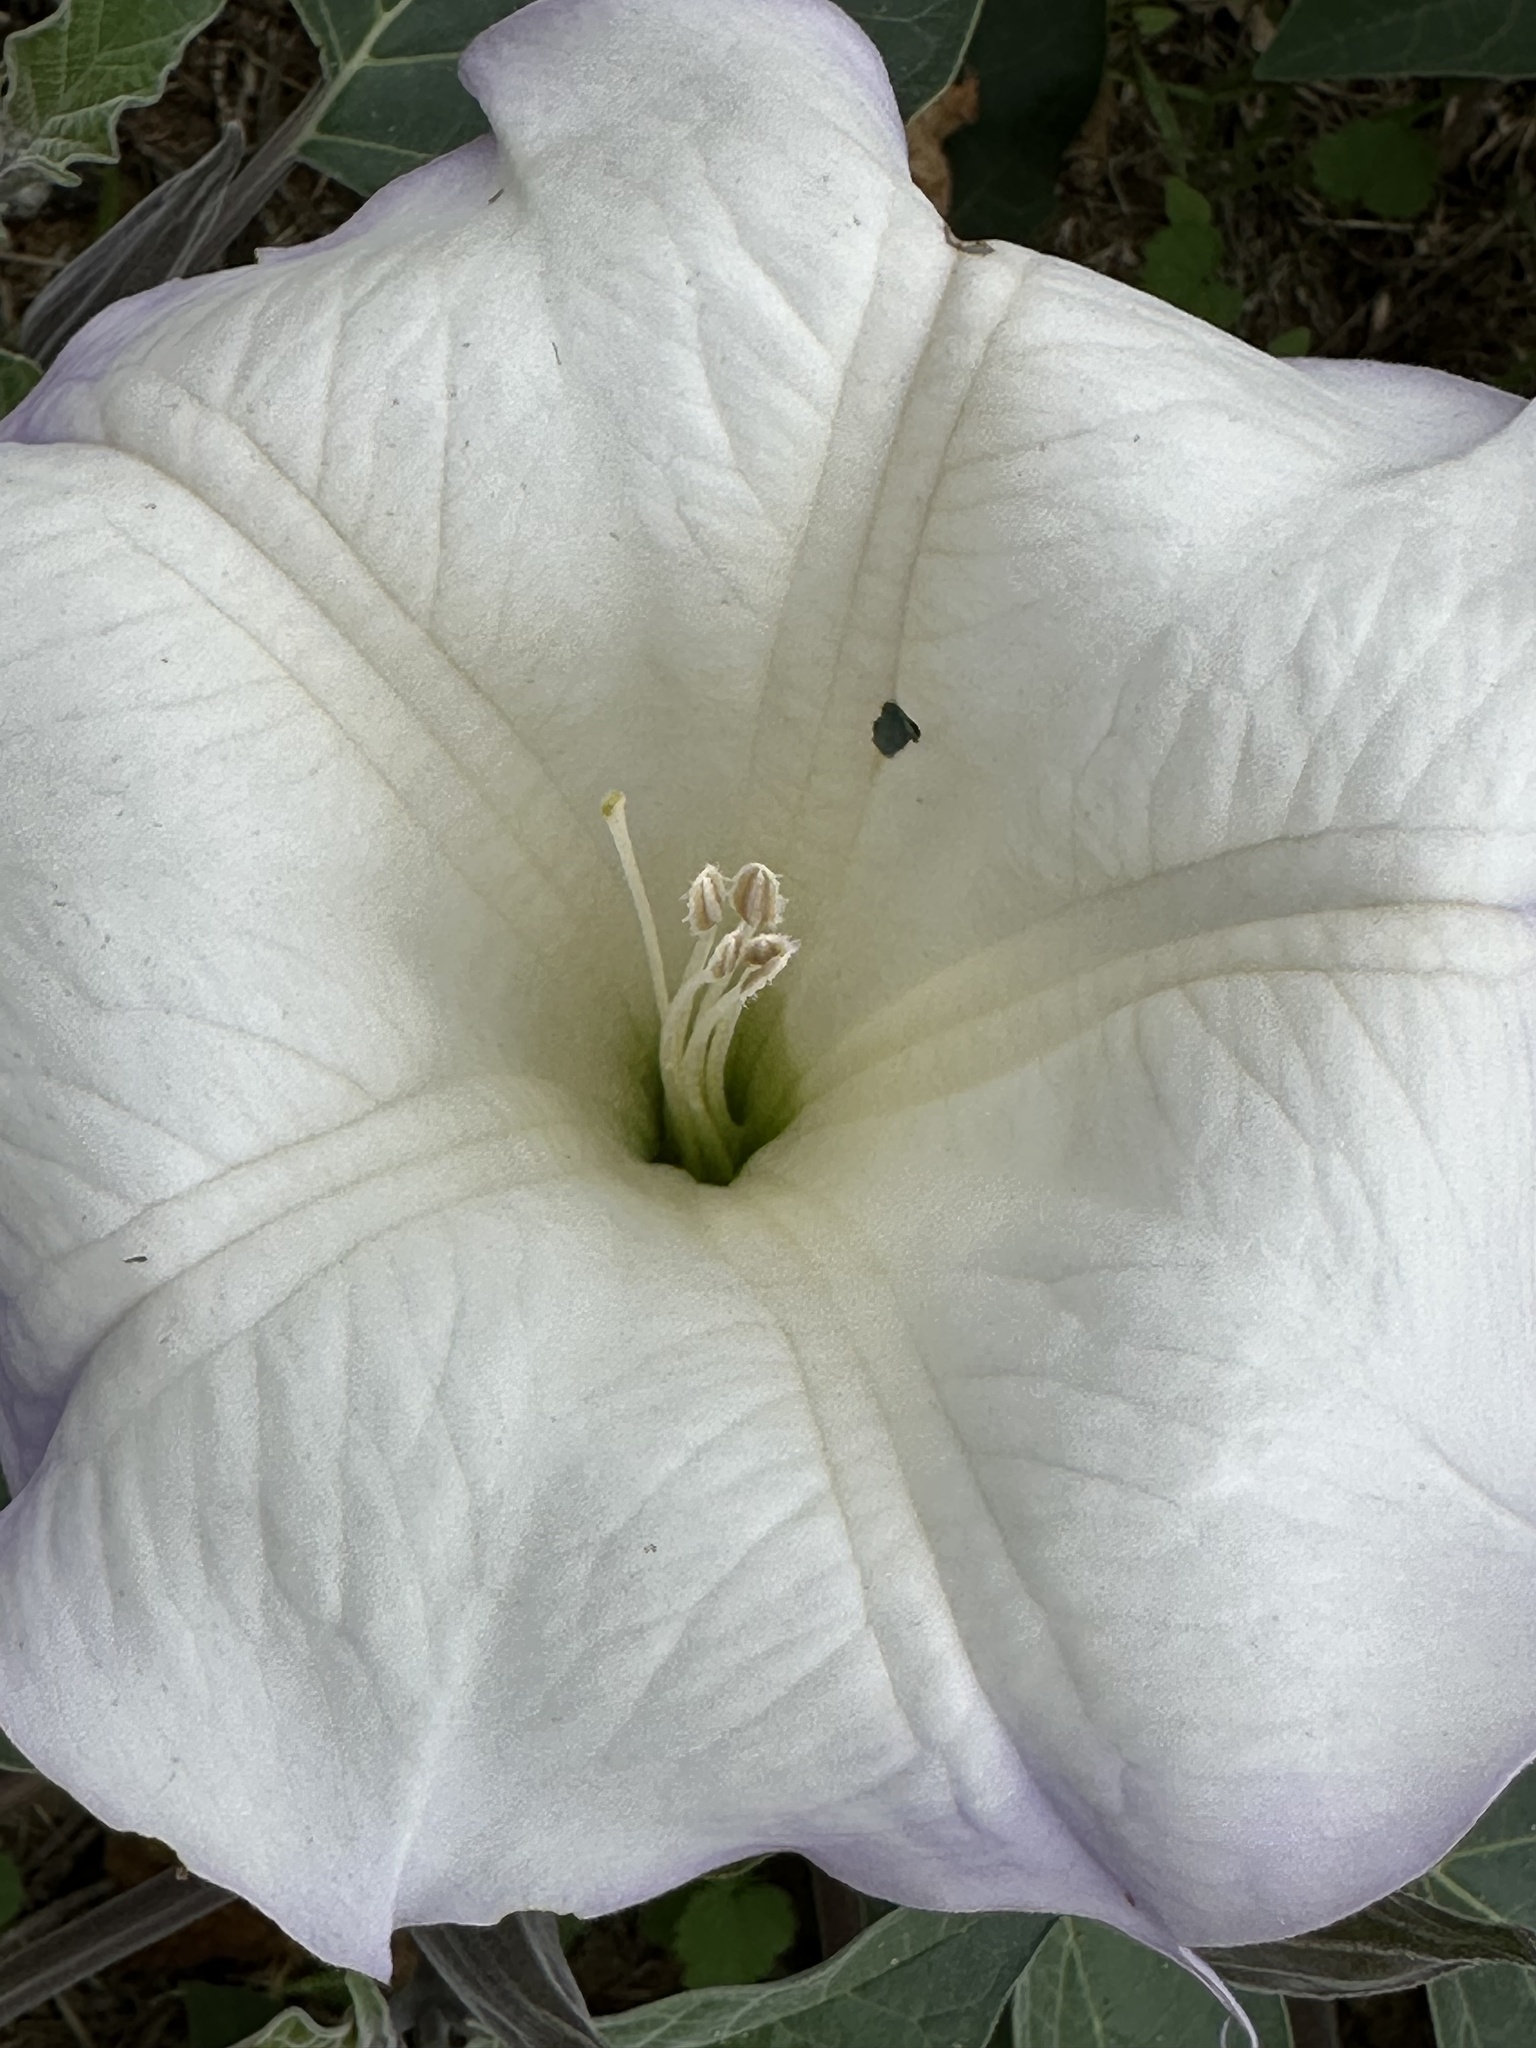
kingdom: Plantae
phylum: Tracheophyta
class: Magnoliopsida
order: Solanales
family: Solanaceae
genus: Datura
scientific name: Datura wrightii
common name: Sacred thorn-apple
